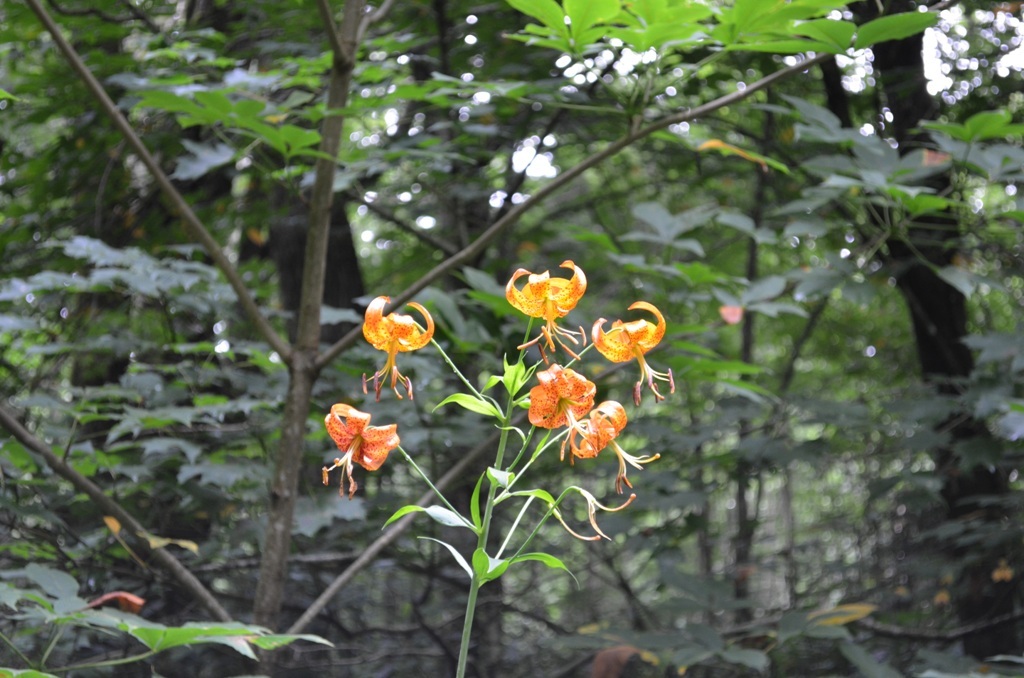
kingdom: Plantae
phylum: Tracheophyta
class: Liliopsida
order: Liliales
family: Liliaceae
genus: Lilium
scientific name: Lilium superbum
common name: American turk's-cap lily
